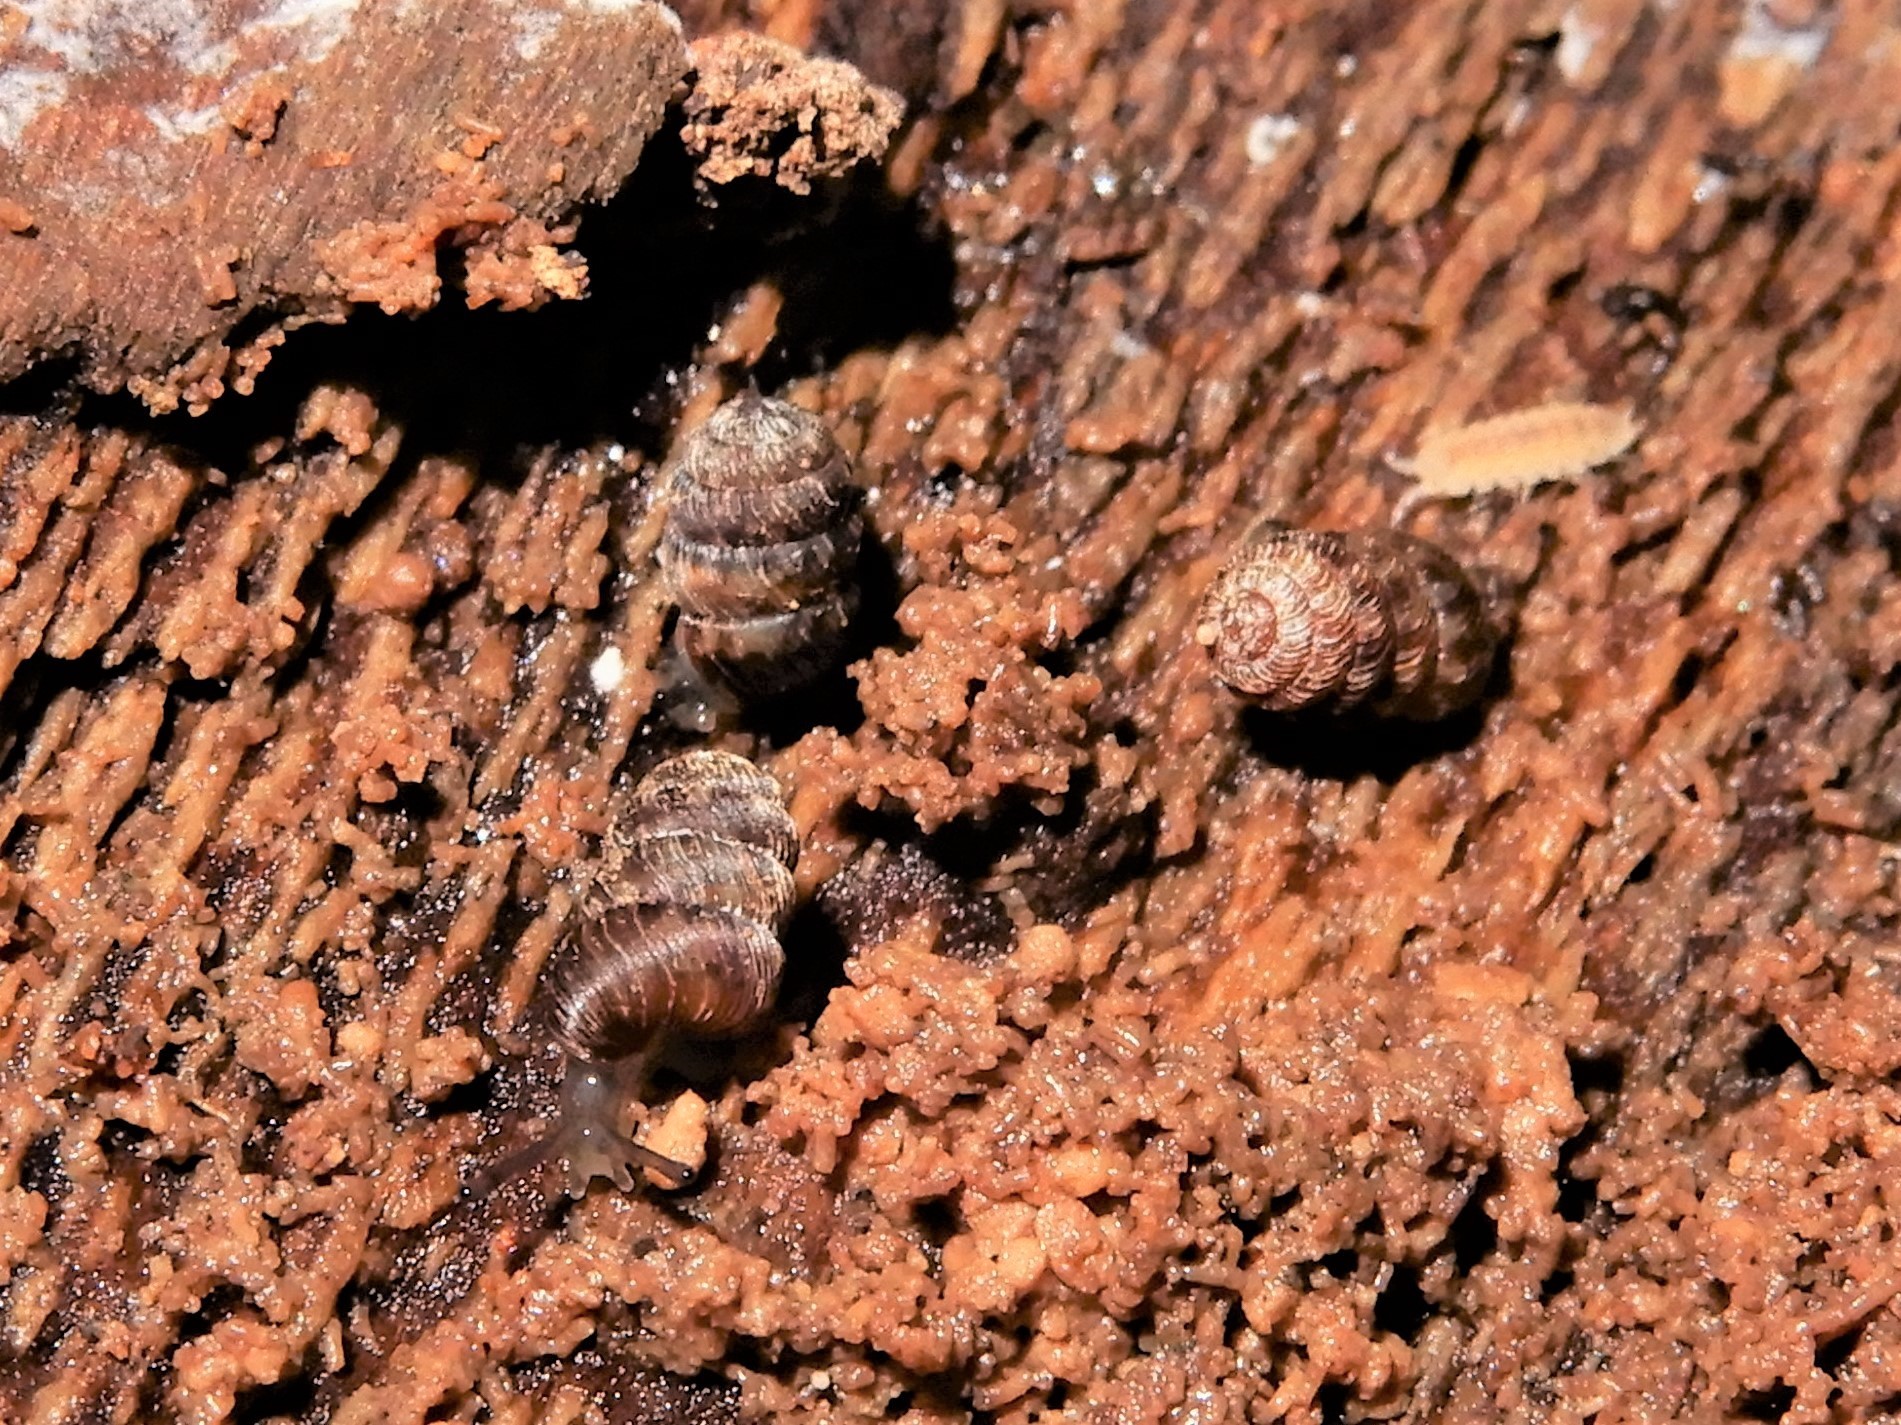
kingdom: Animalia
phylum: Mollusca
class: Gastropoda
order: Stylommatophora
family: Charopidae
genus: Phenacharopa
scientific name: Phenacharopa novoseelandica
